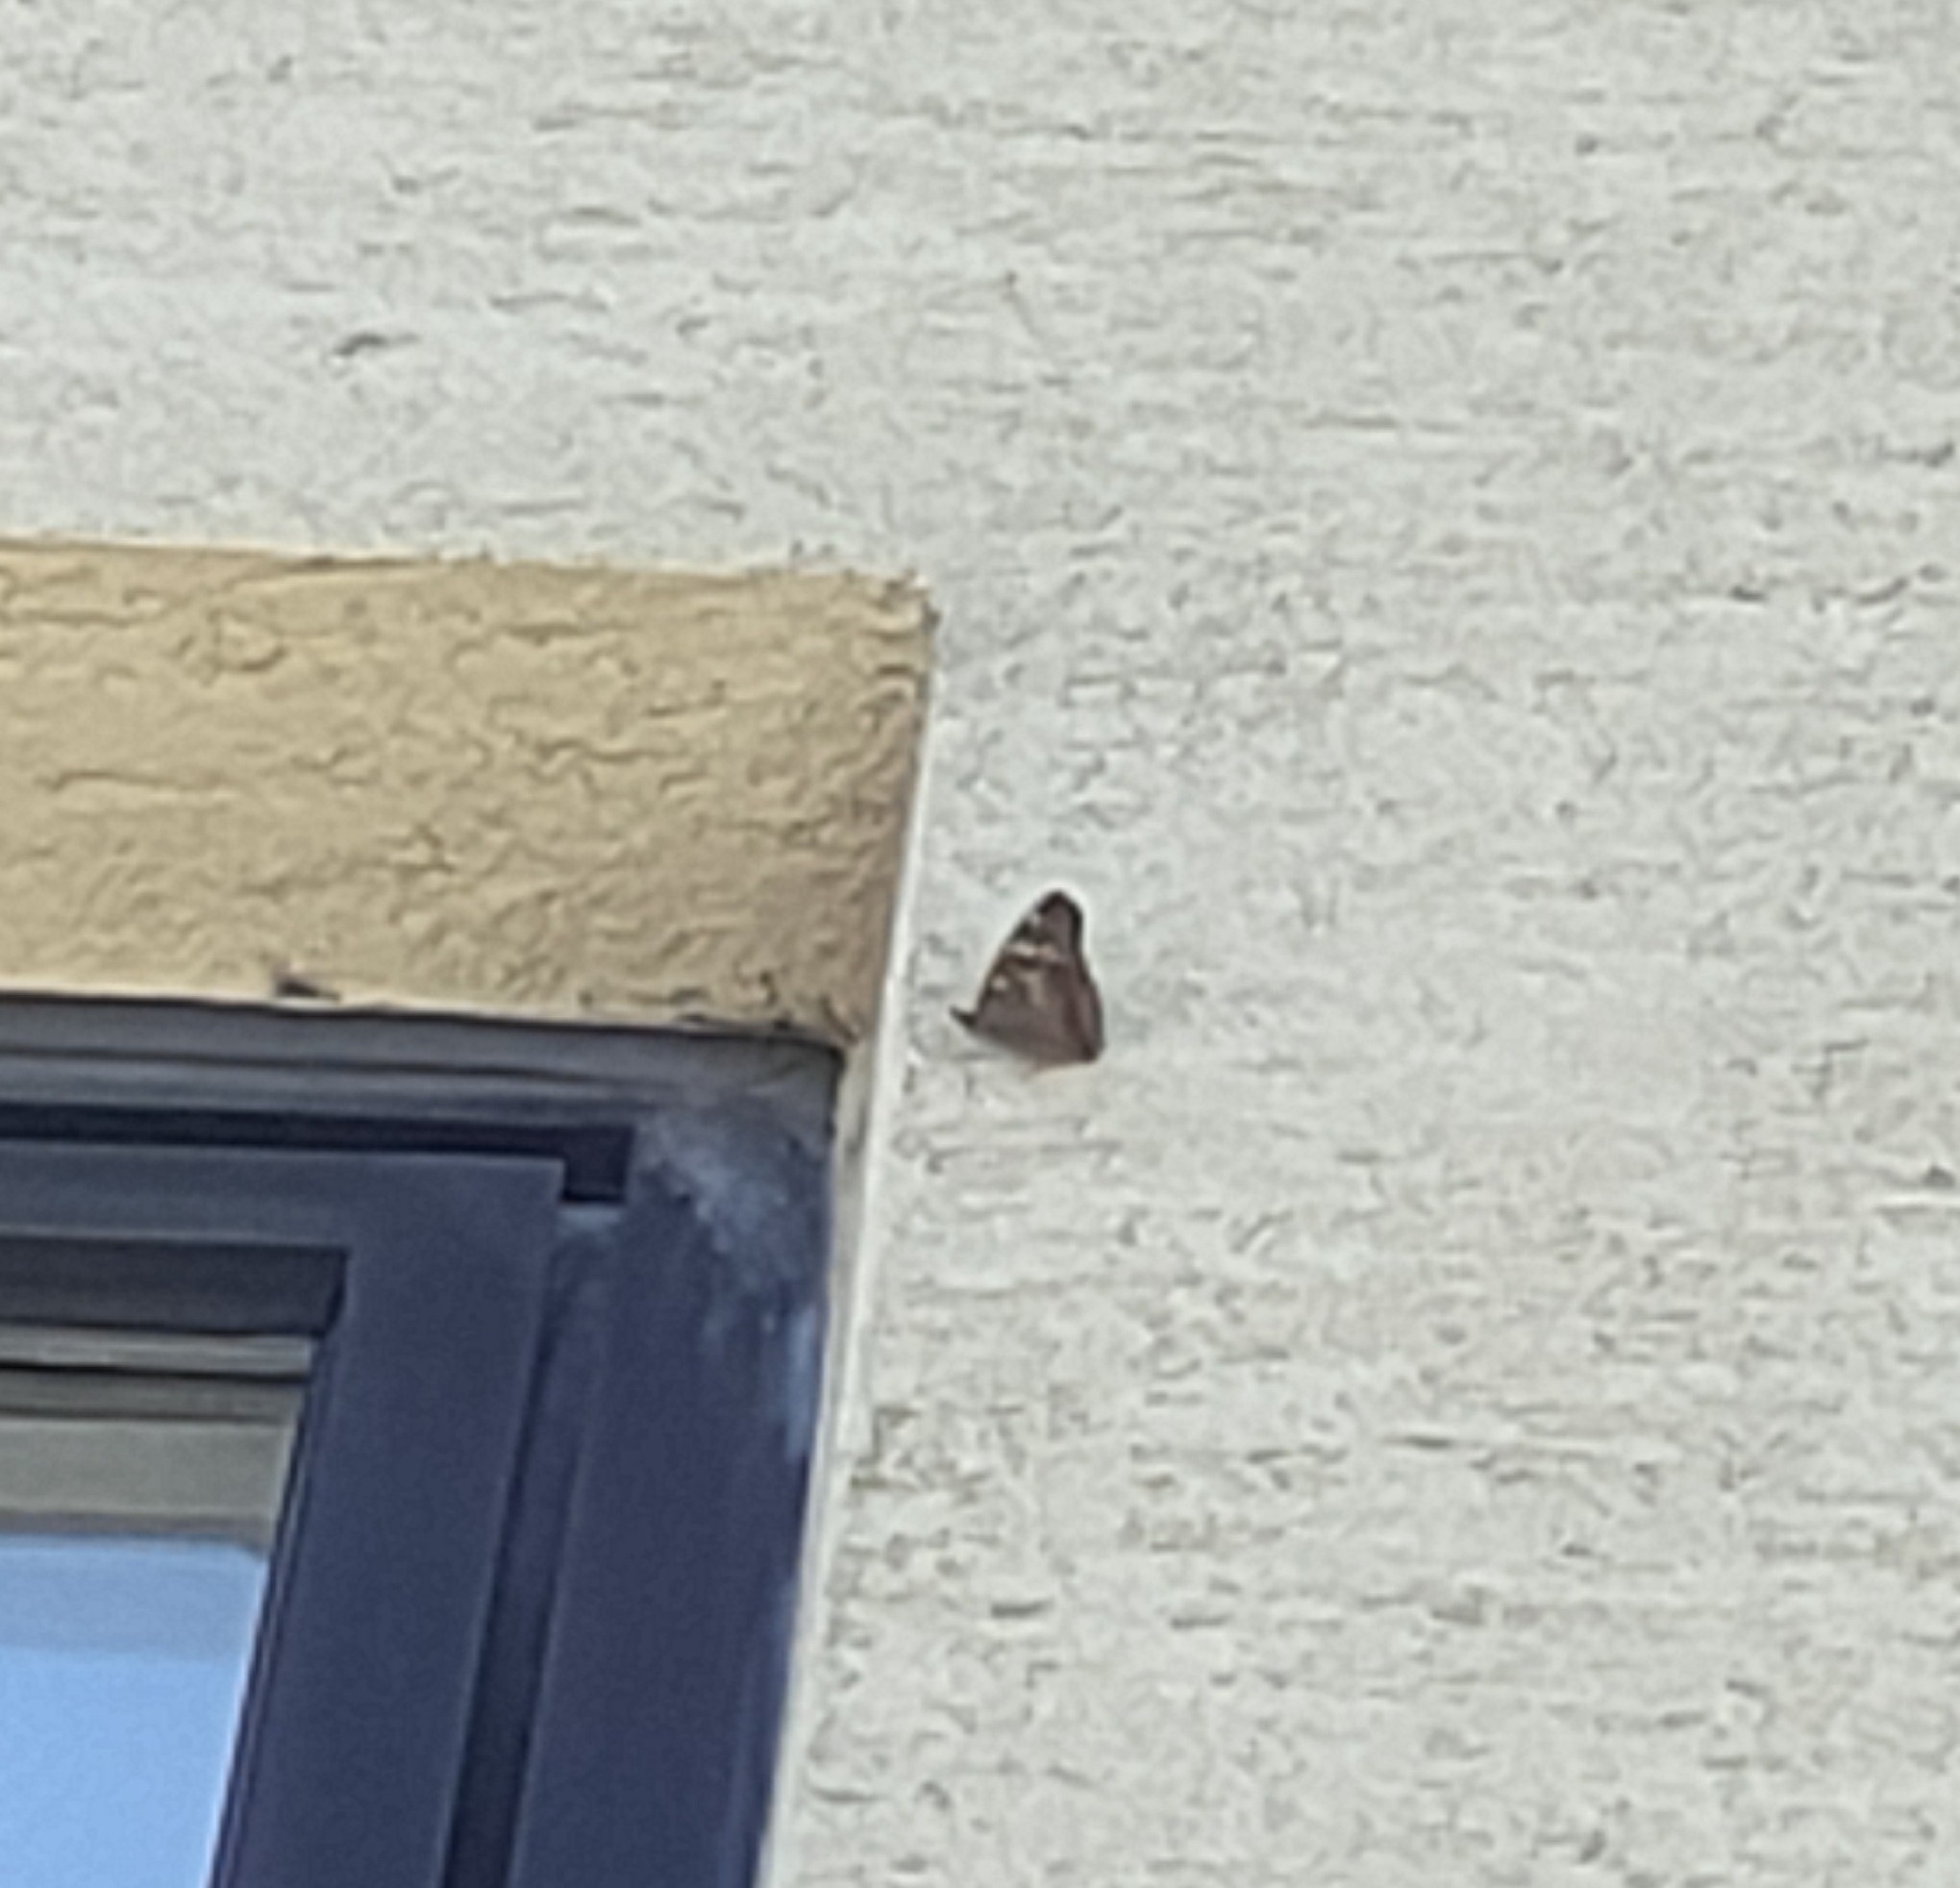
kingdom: Animalia
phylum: Arthropoda
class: Insecta
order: Lepidoptera
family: Nymphalidae
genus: Apatura
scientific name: Apatura ilia
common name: Lesser purple emperor
